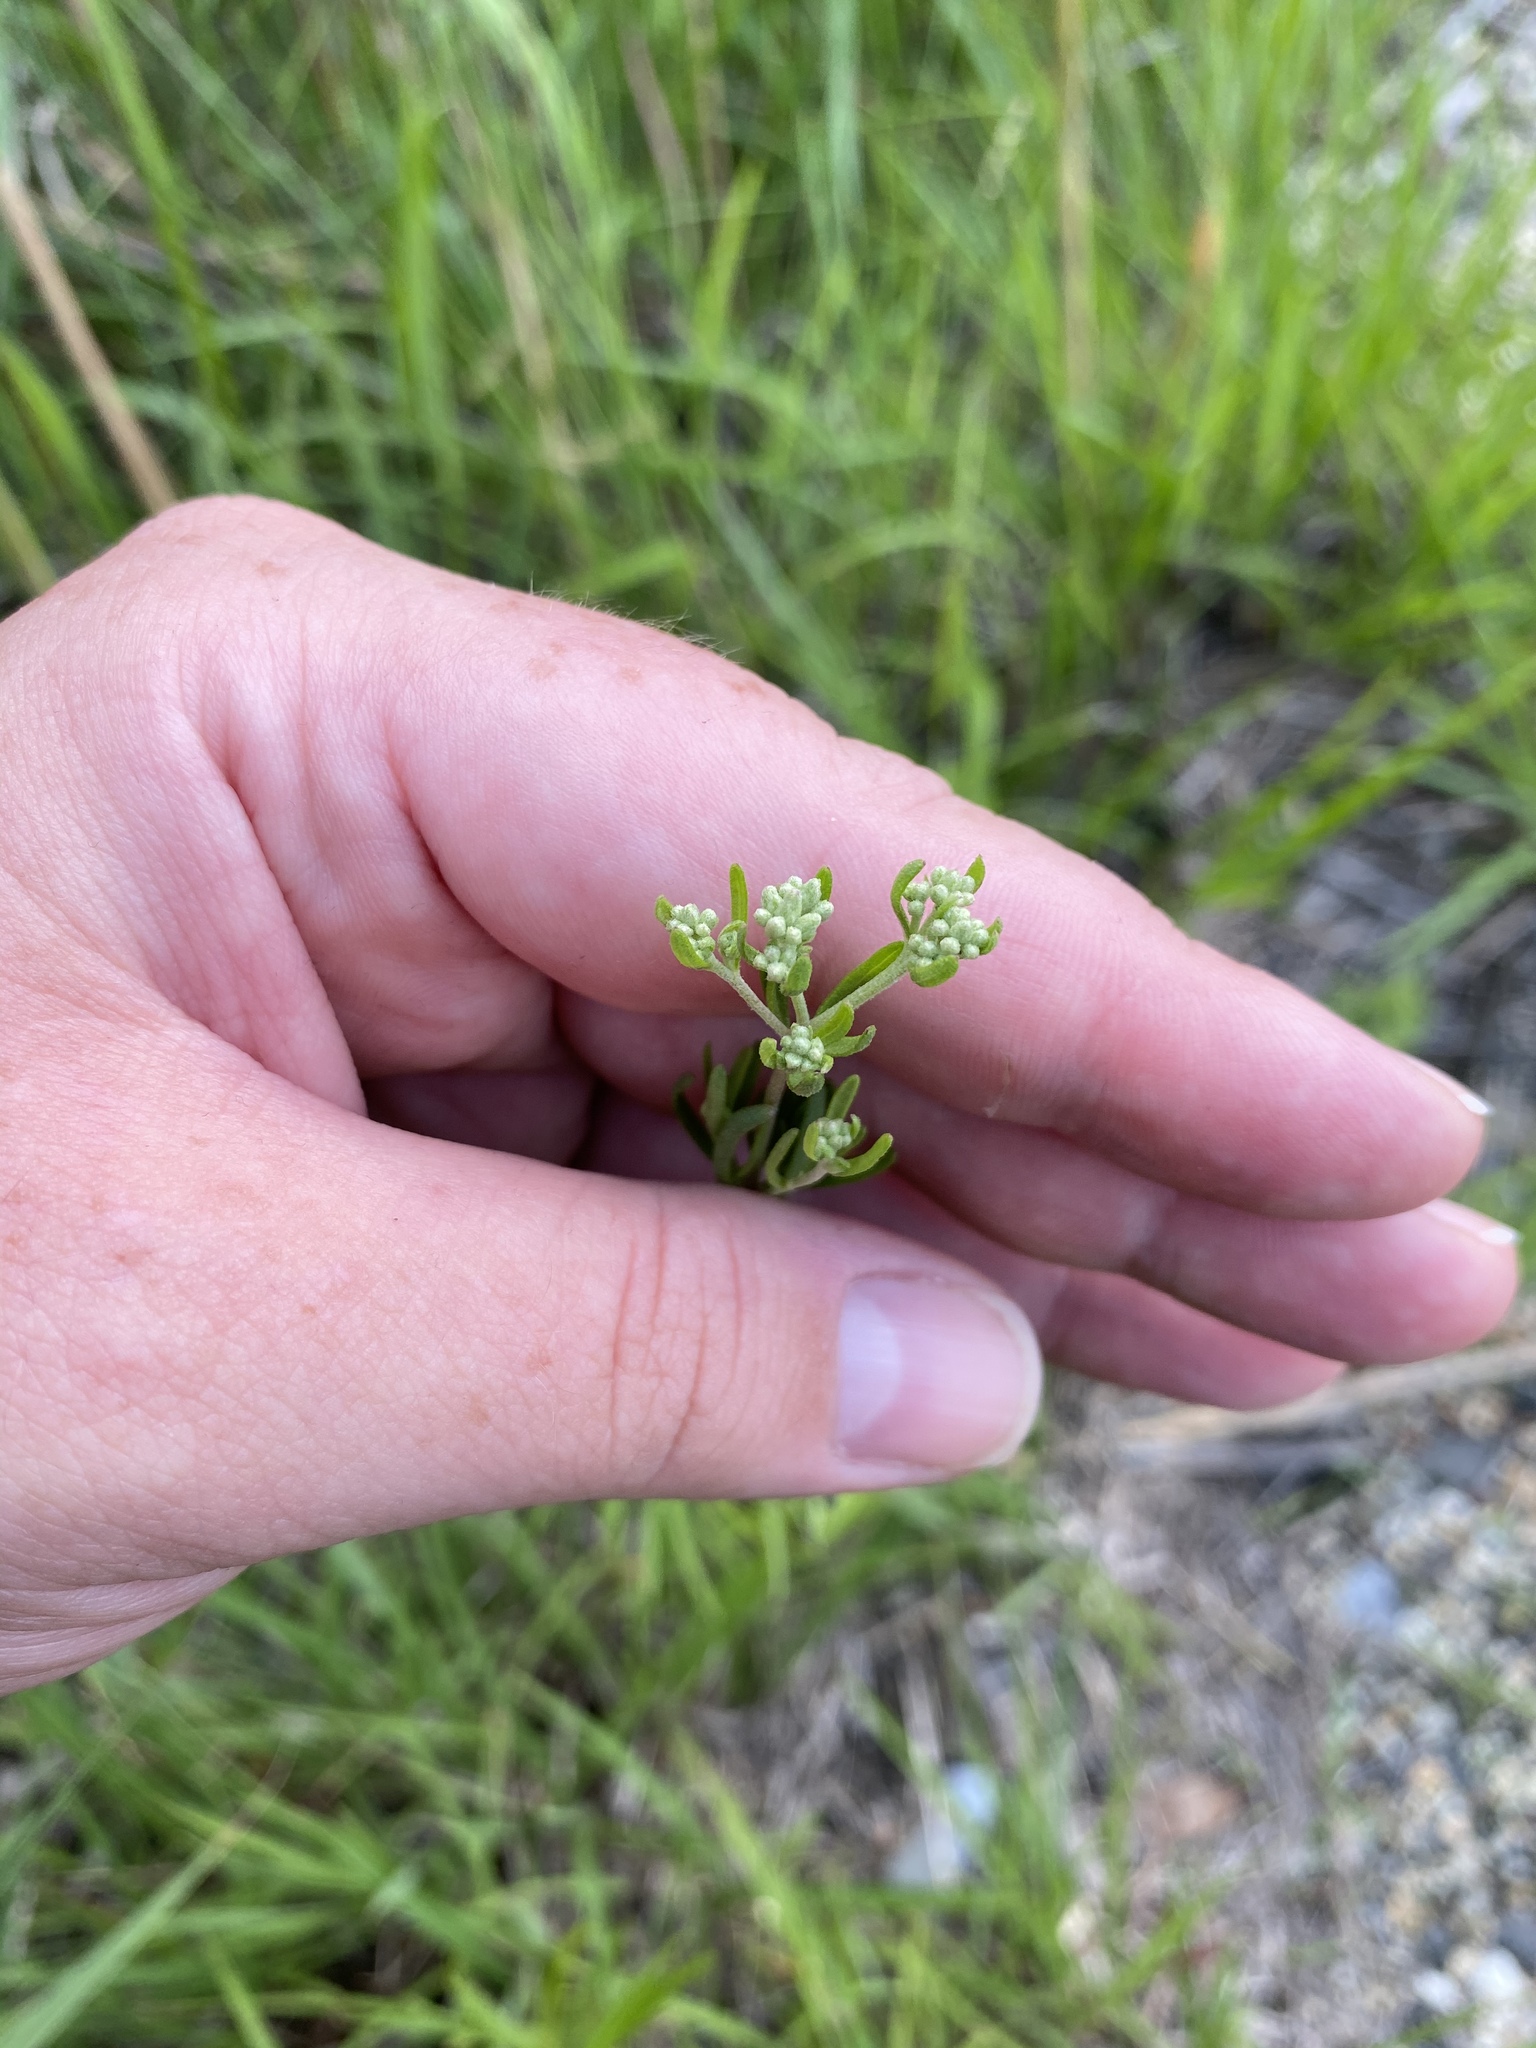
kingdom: Plantae
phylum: Tracheophyta
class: Magnoliopsida
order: Asterales
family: Asteraceae
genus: Eupatorium
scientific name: Eupatorium hyssopifolium
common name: Hyssop-leaf thoroughwort
